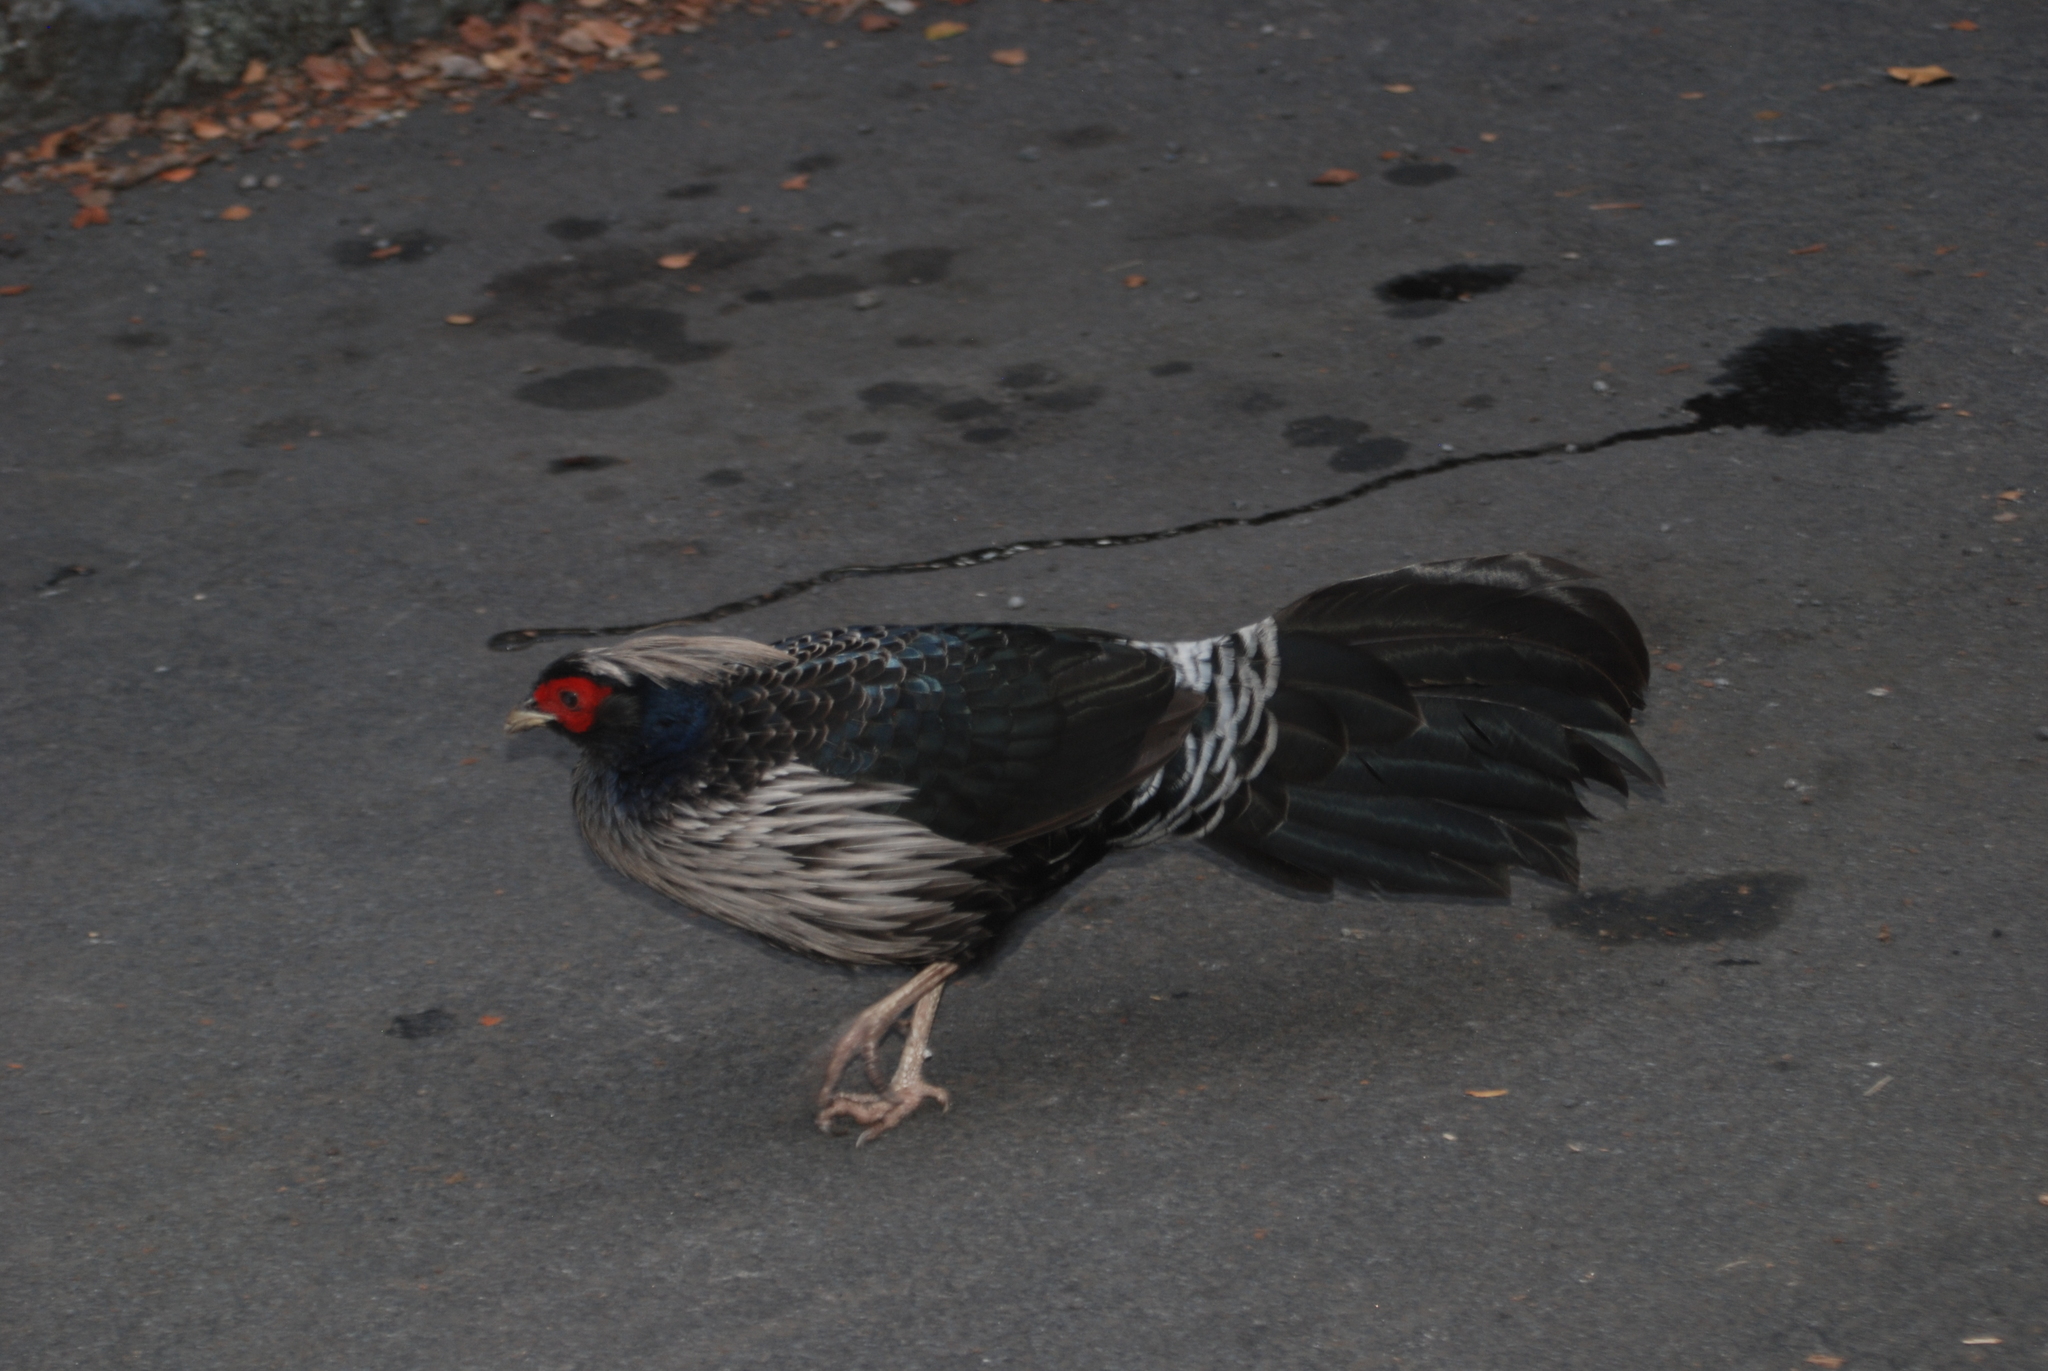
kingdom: Animalia
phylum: Chordata
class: Aves
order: Galliformes
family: Phasianidae
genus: Lophura
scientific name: Lophura leucomelanos
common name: Kalij pheasant
